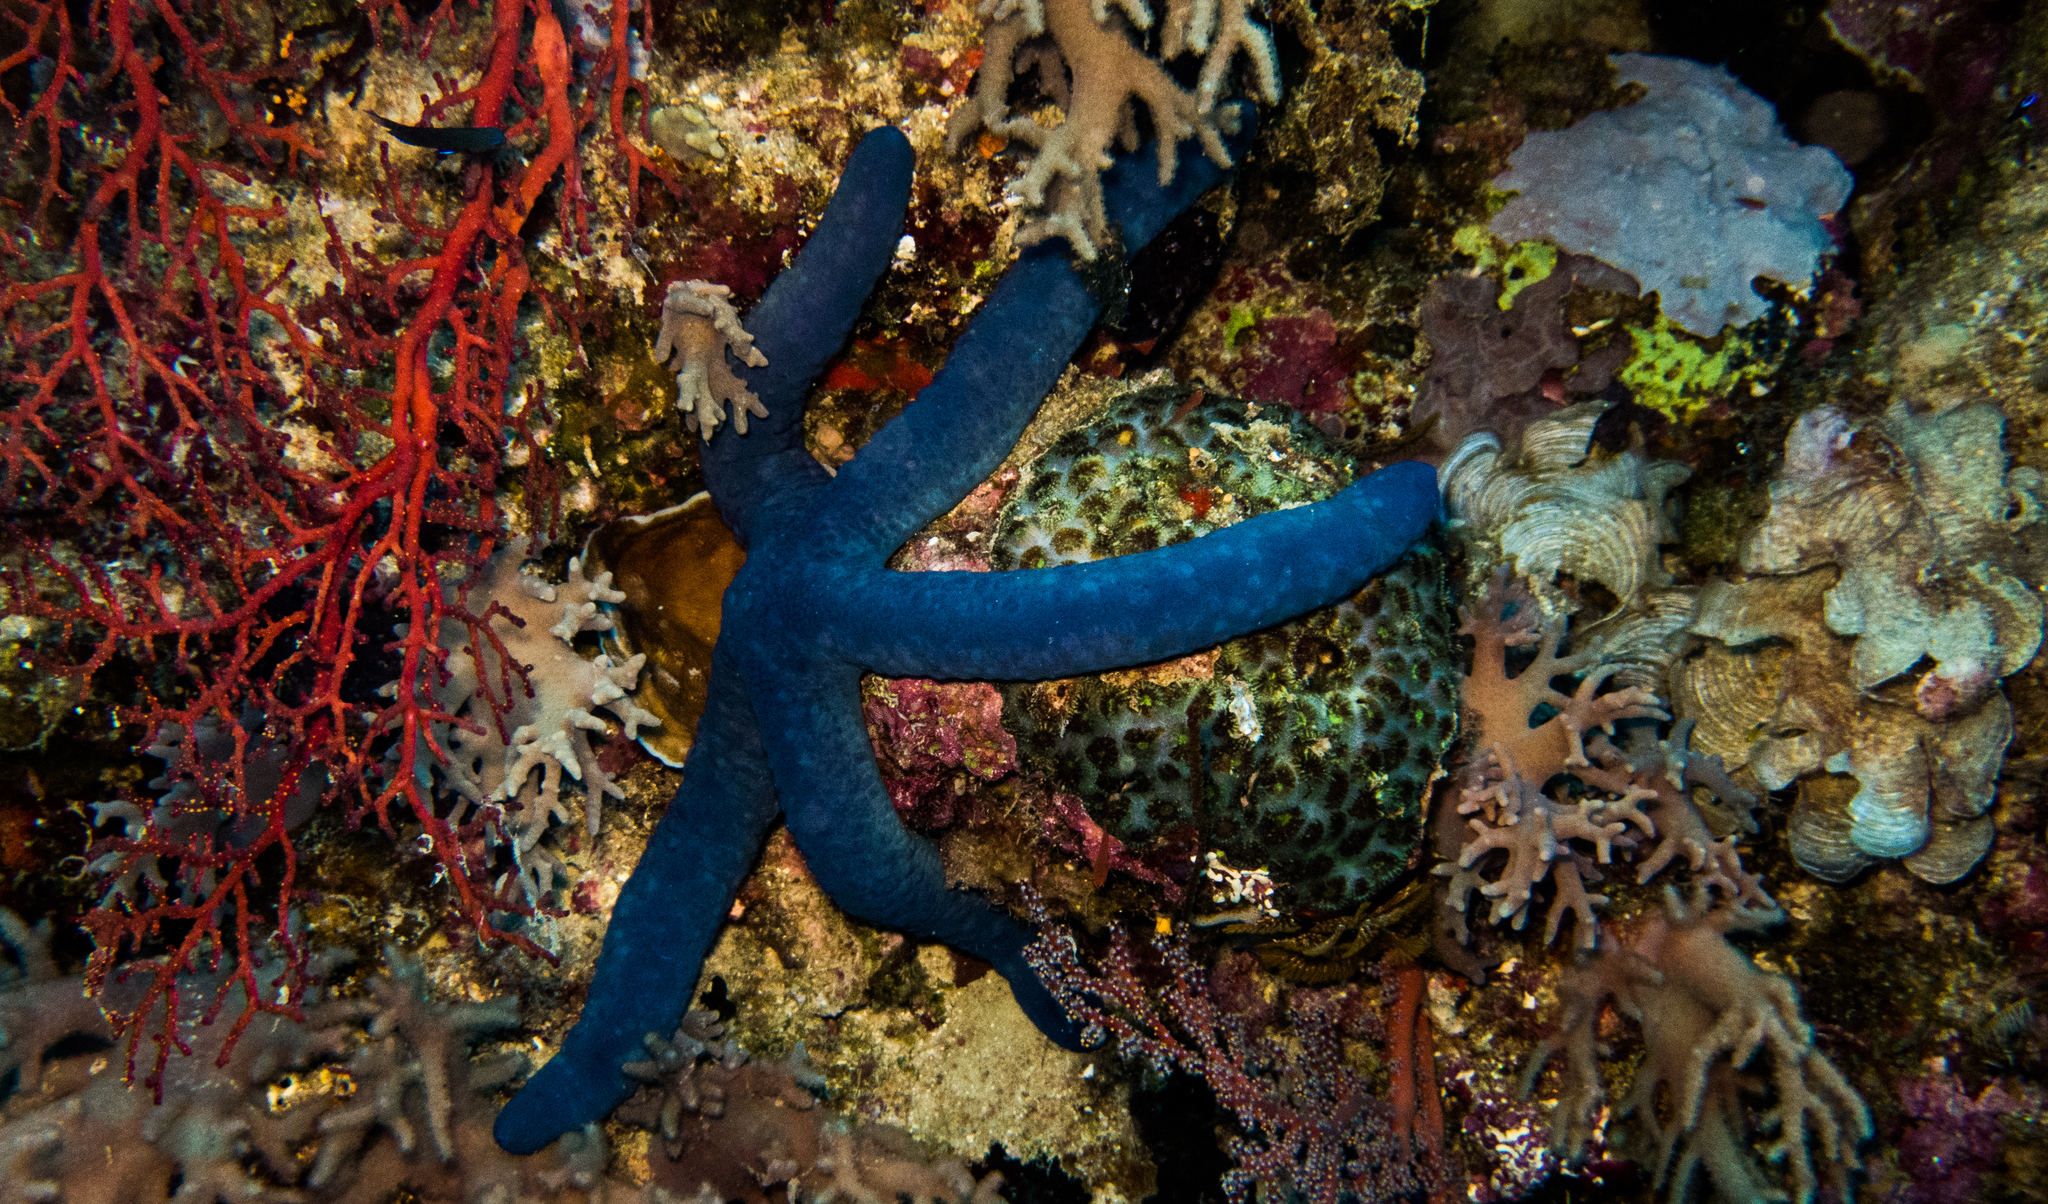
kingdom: Animalia
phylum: Echinodermata
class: Asteroidea
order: Valvatida
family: Ophidiasteridae
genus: Linckia
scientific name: Linckia laevigata
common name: Azure sea star
